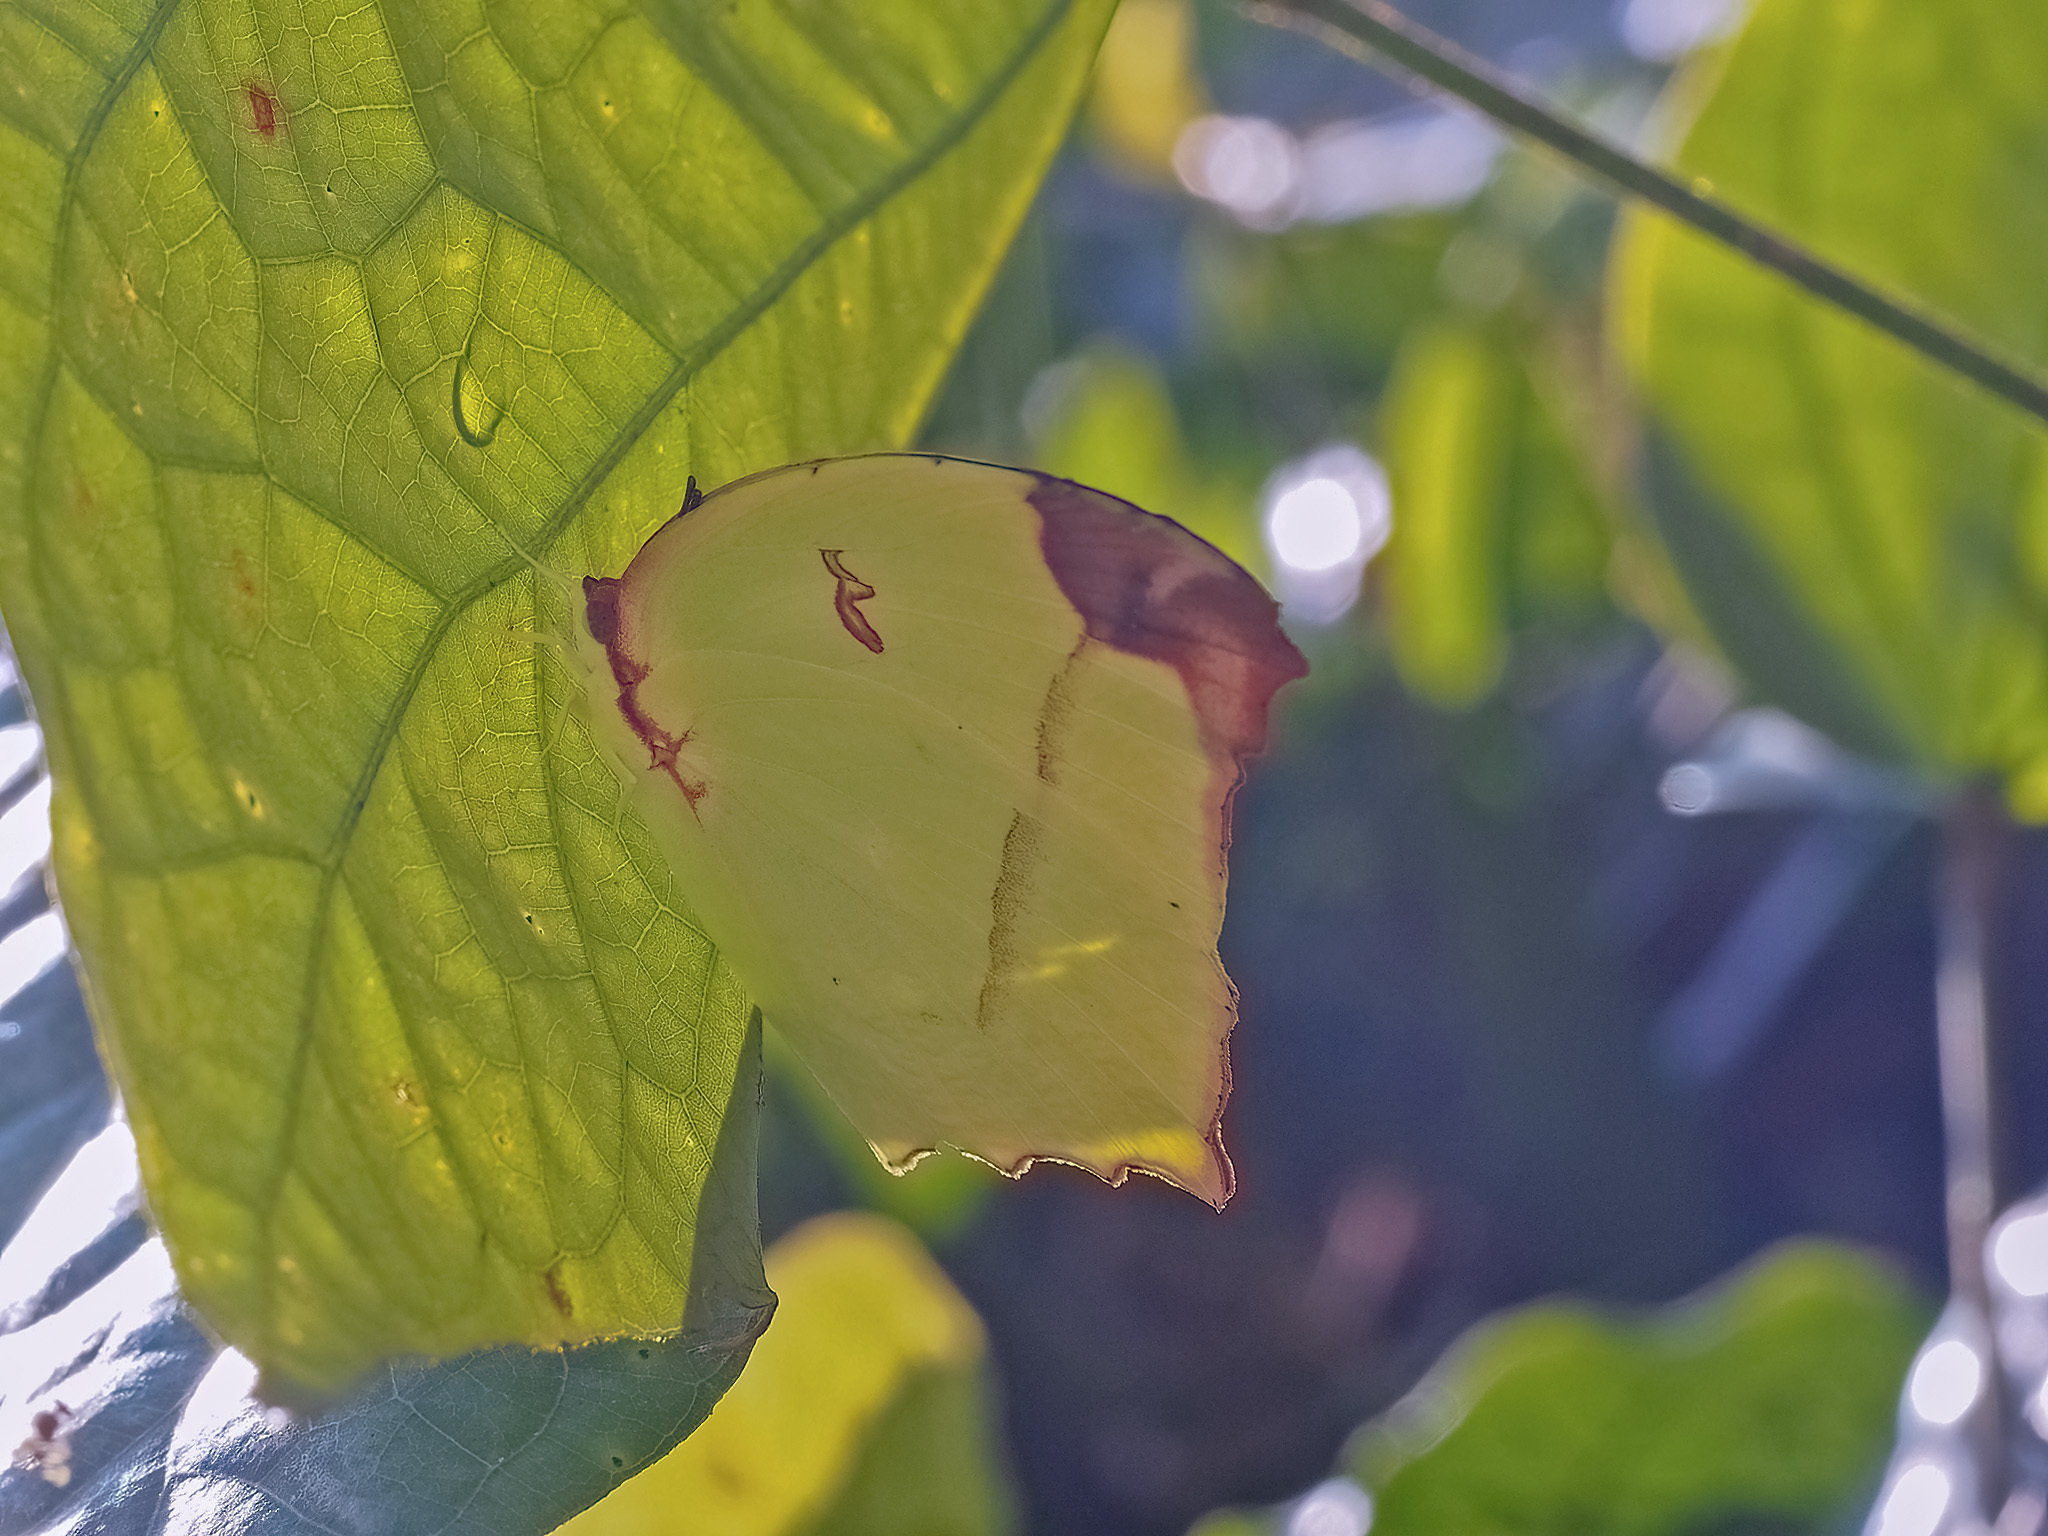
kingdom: Animalia
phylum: Arthropoda
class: Insecta
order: Lepidoptera
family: Pieridae
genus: Dercas
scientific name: Dercas gobrias
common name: Angled sulfur
